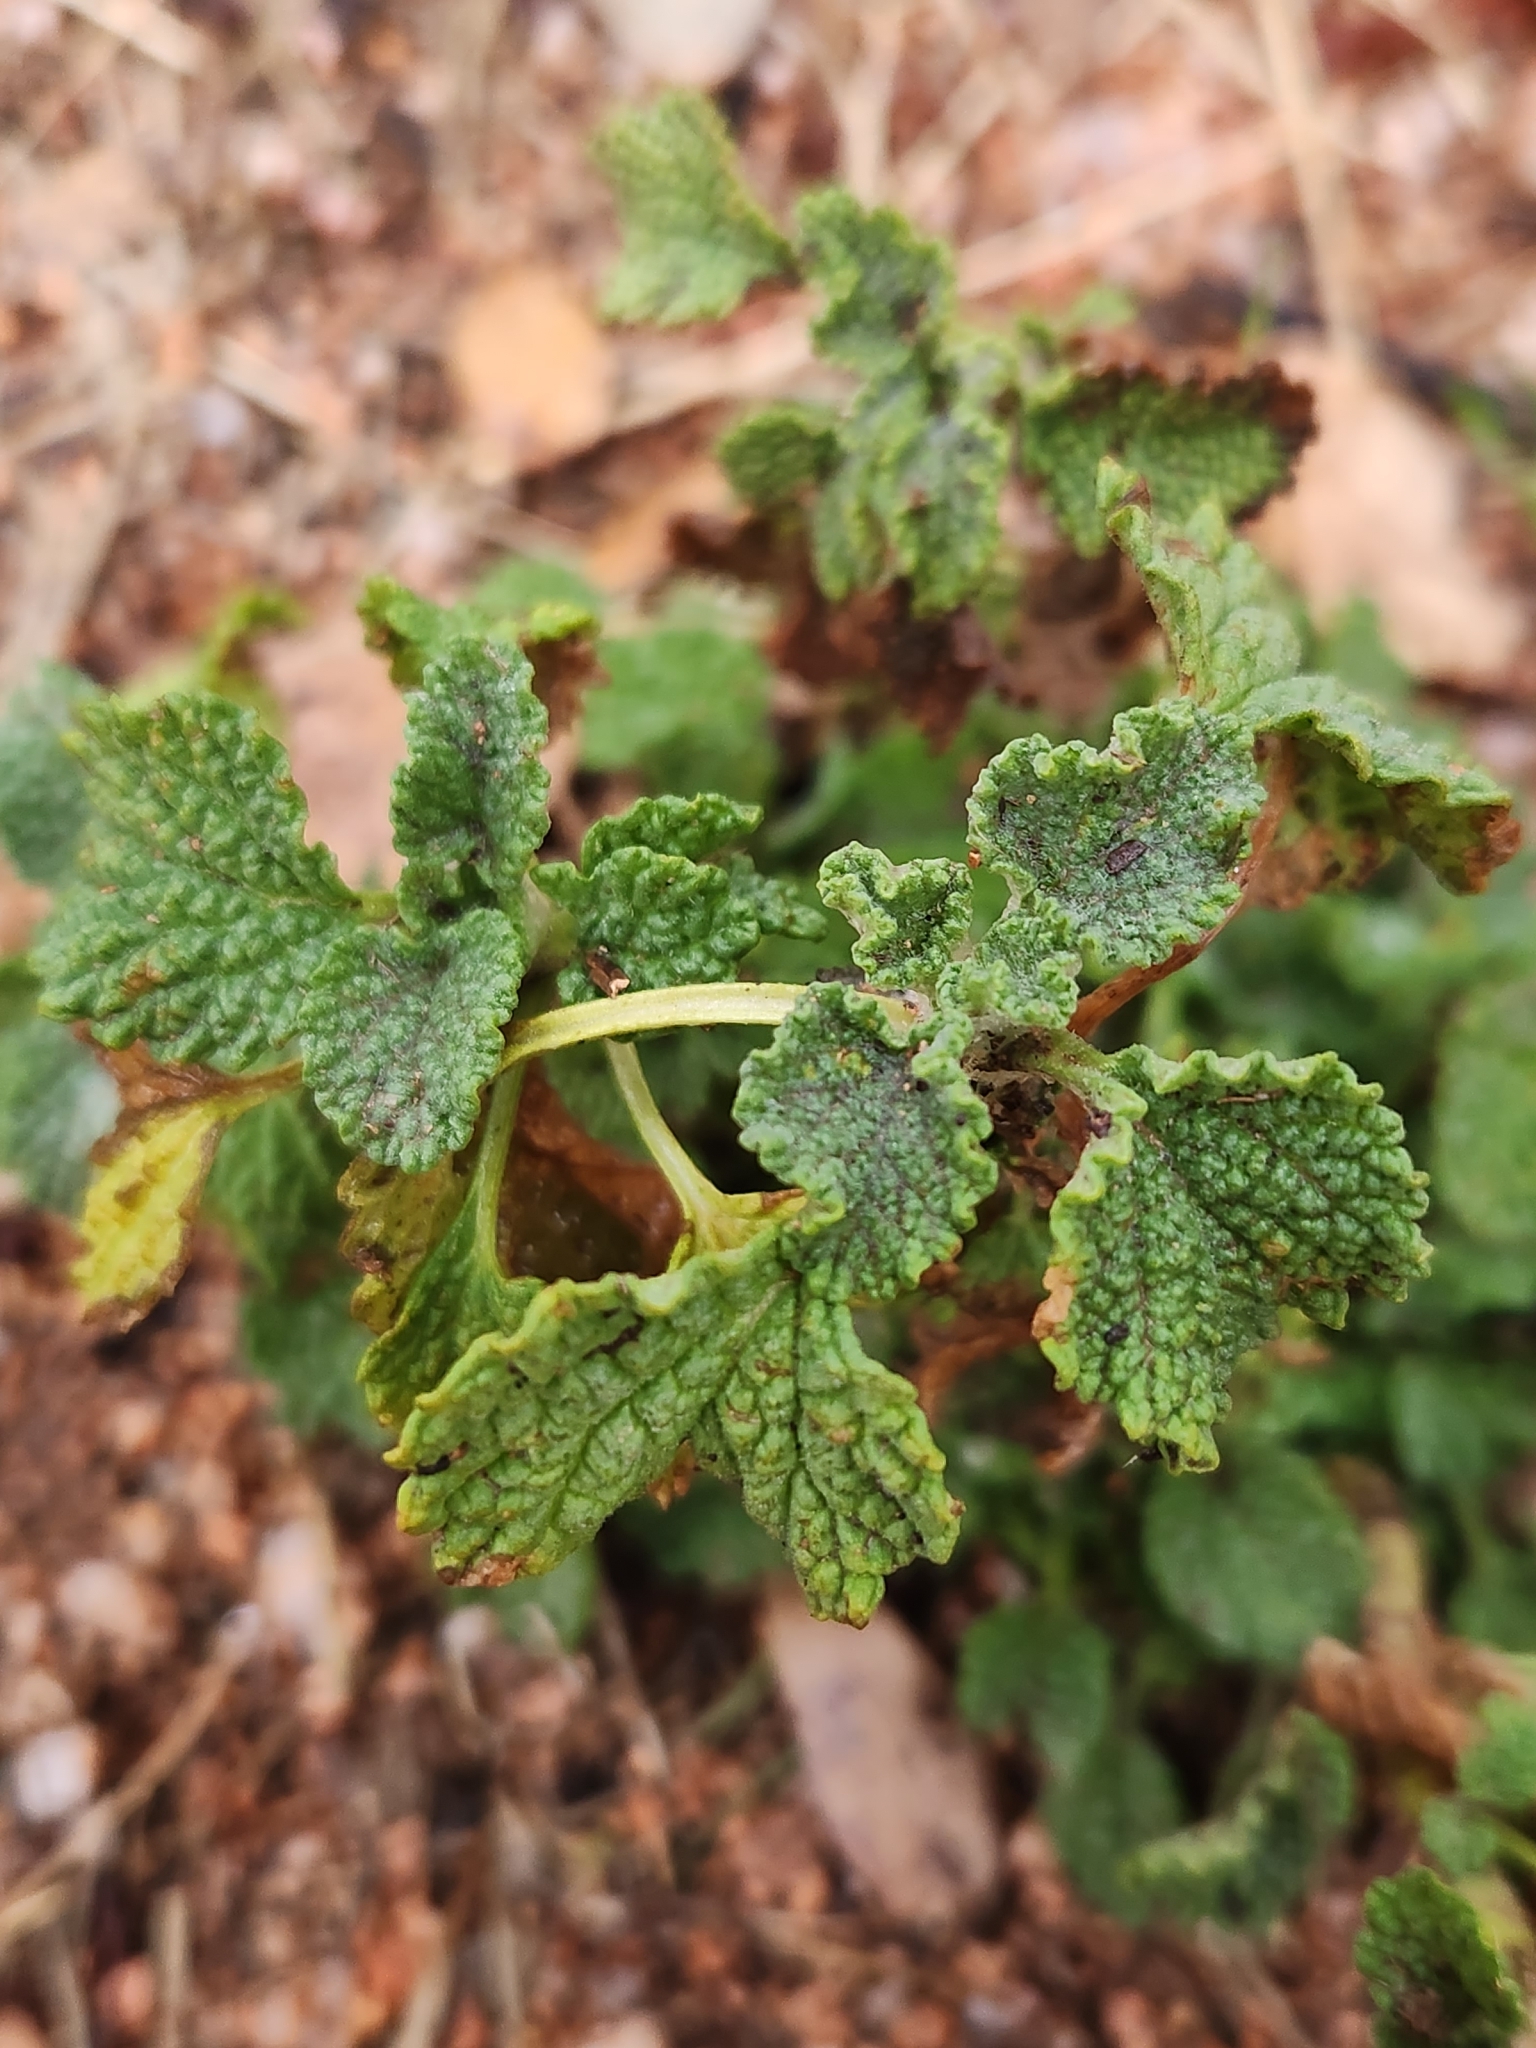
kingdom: Plantae
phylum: Tracheophyta
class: Magnoliopsida
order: Lamiales
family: Lamiaceae
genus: Marrubium
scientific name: Marrubium vulgare
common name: Horehound
